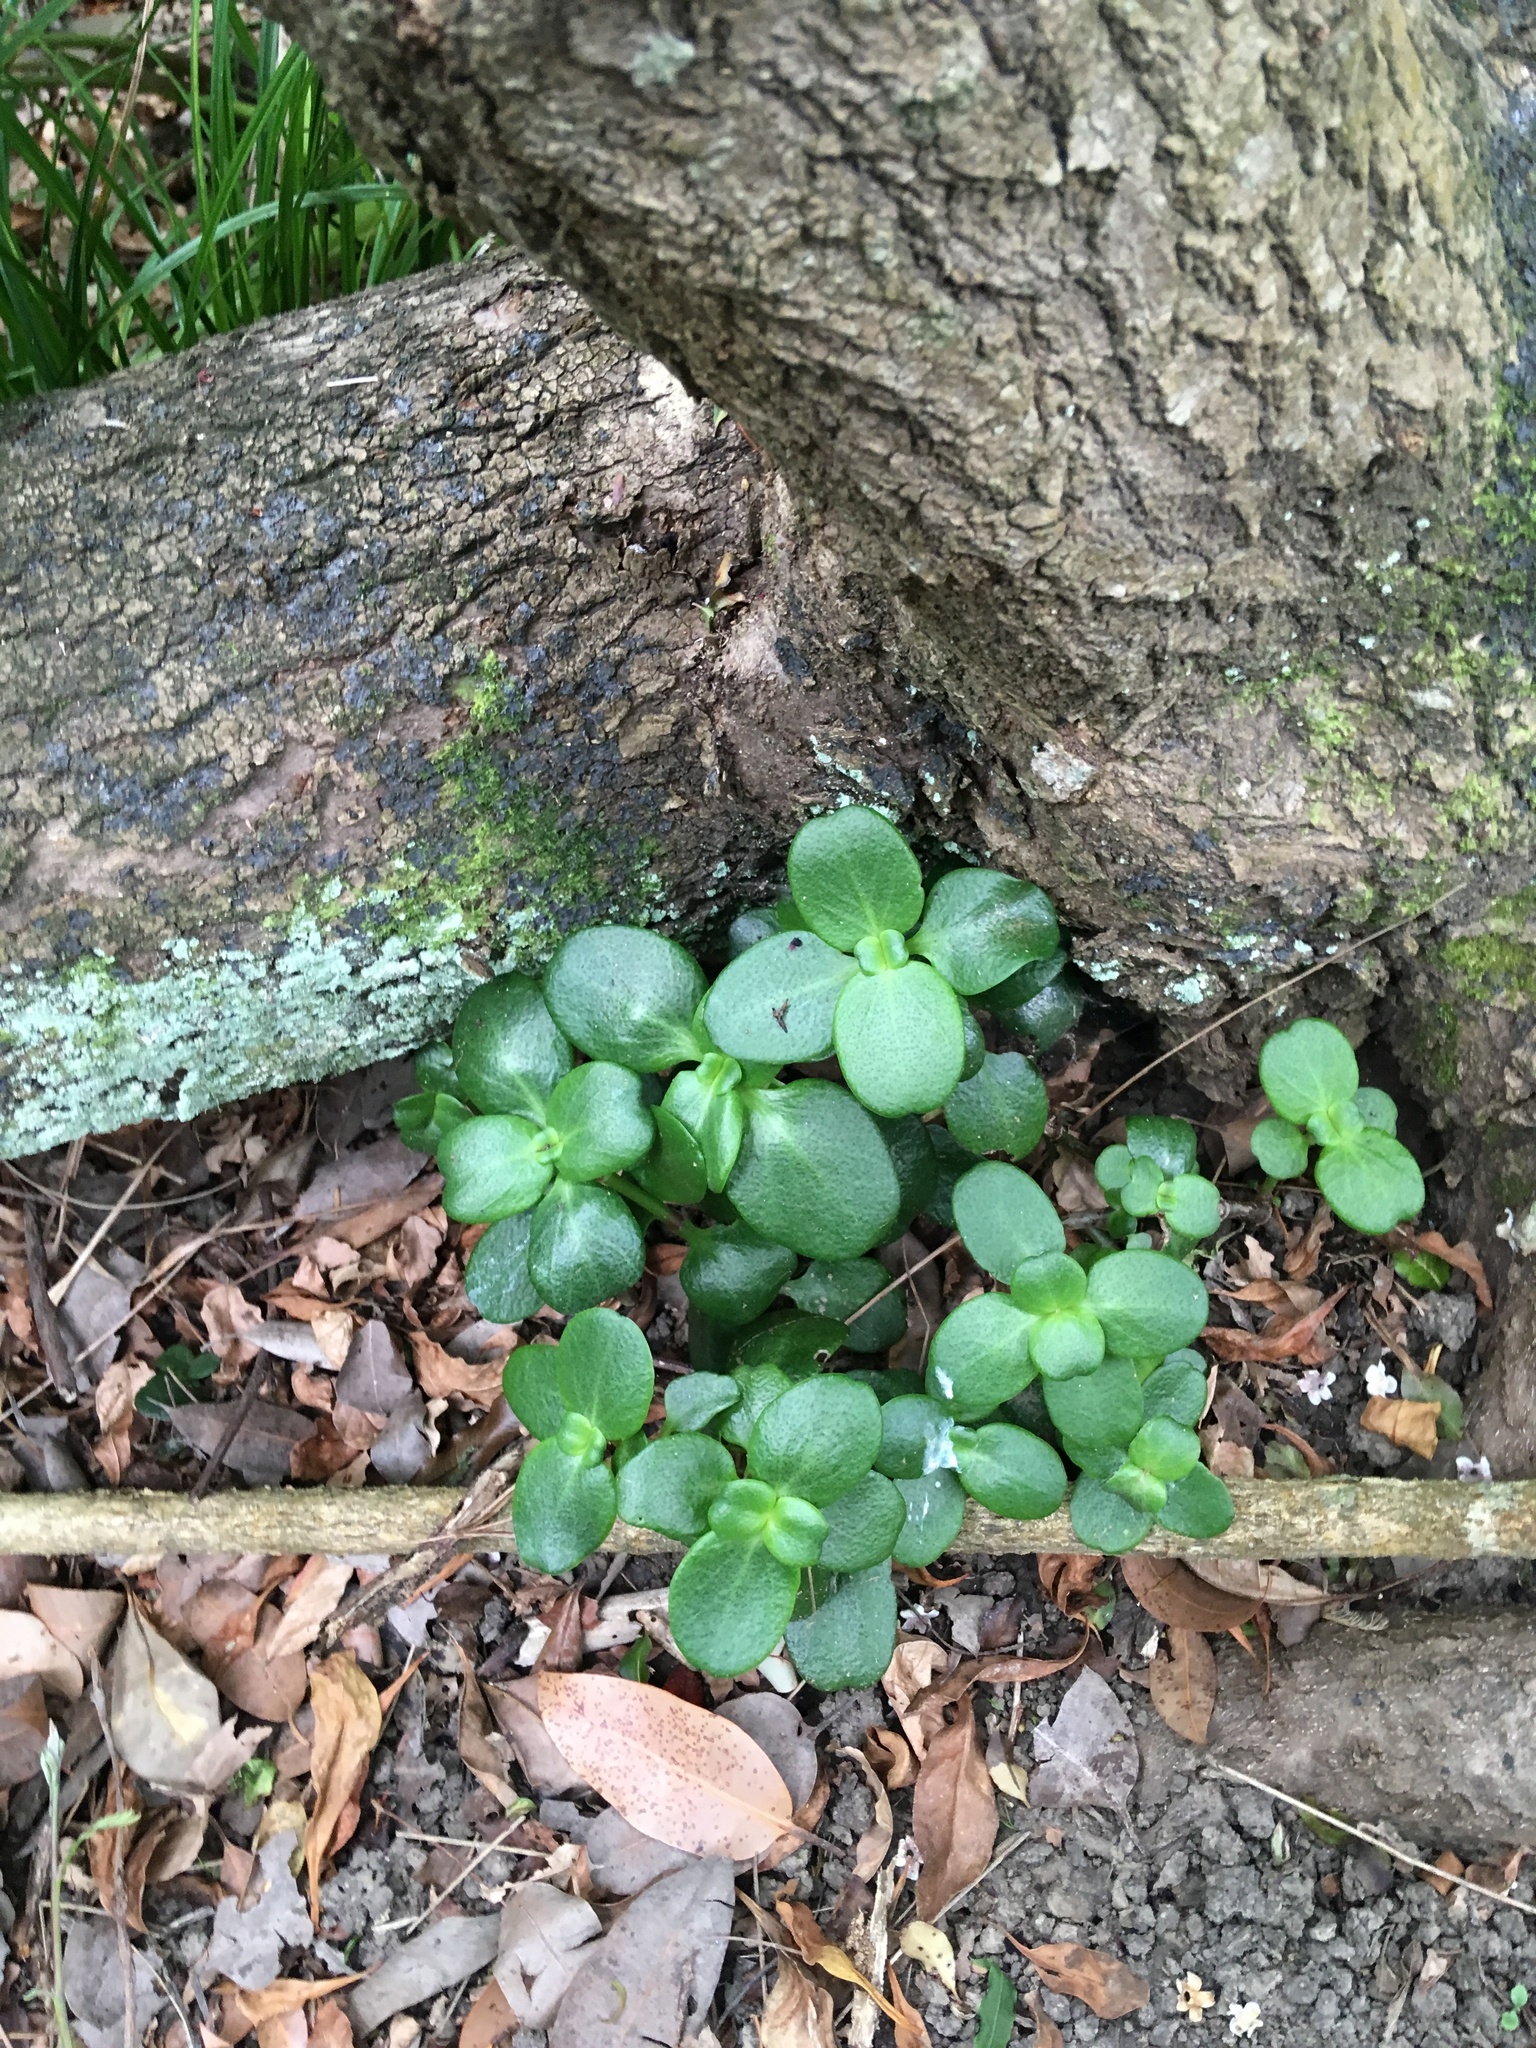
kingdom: Plantae
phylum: Tracheophyta
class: Magnoliopsida
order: Saxifragales
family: Crassulaceae
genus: Crassula
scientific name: Crassula multicava
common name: Cape province pygmyweed
